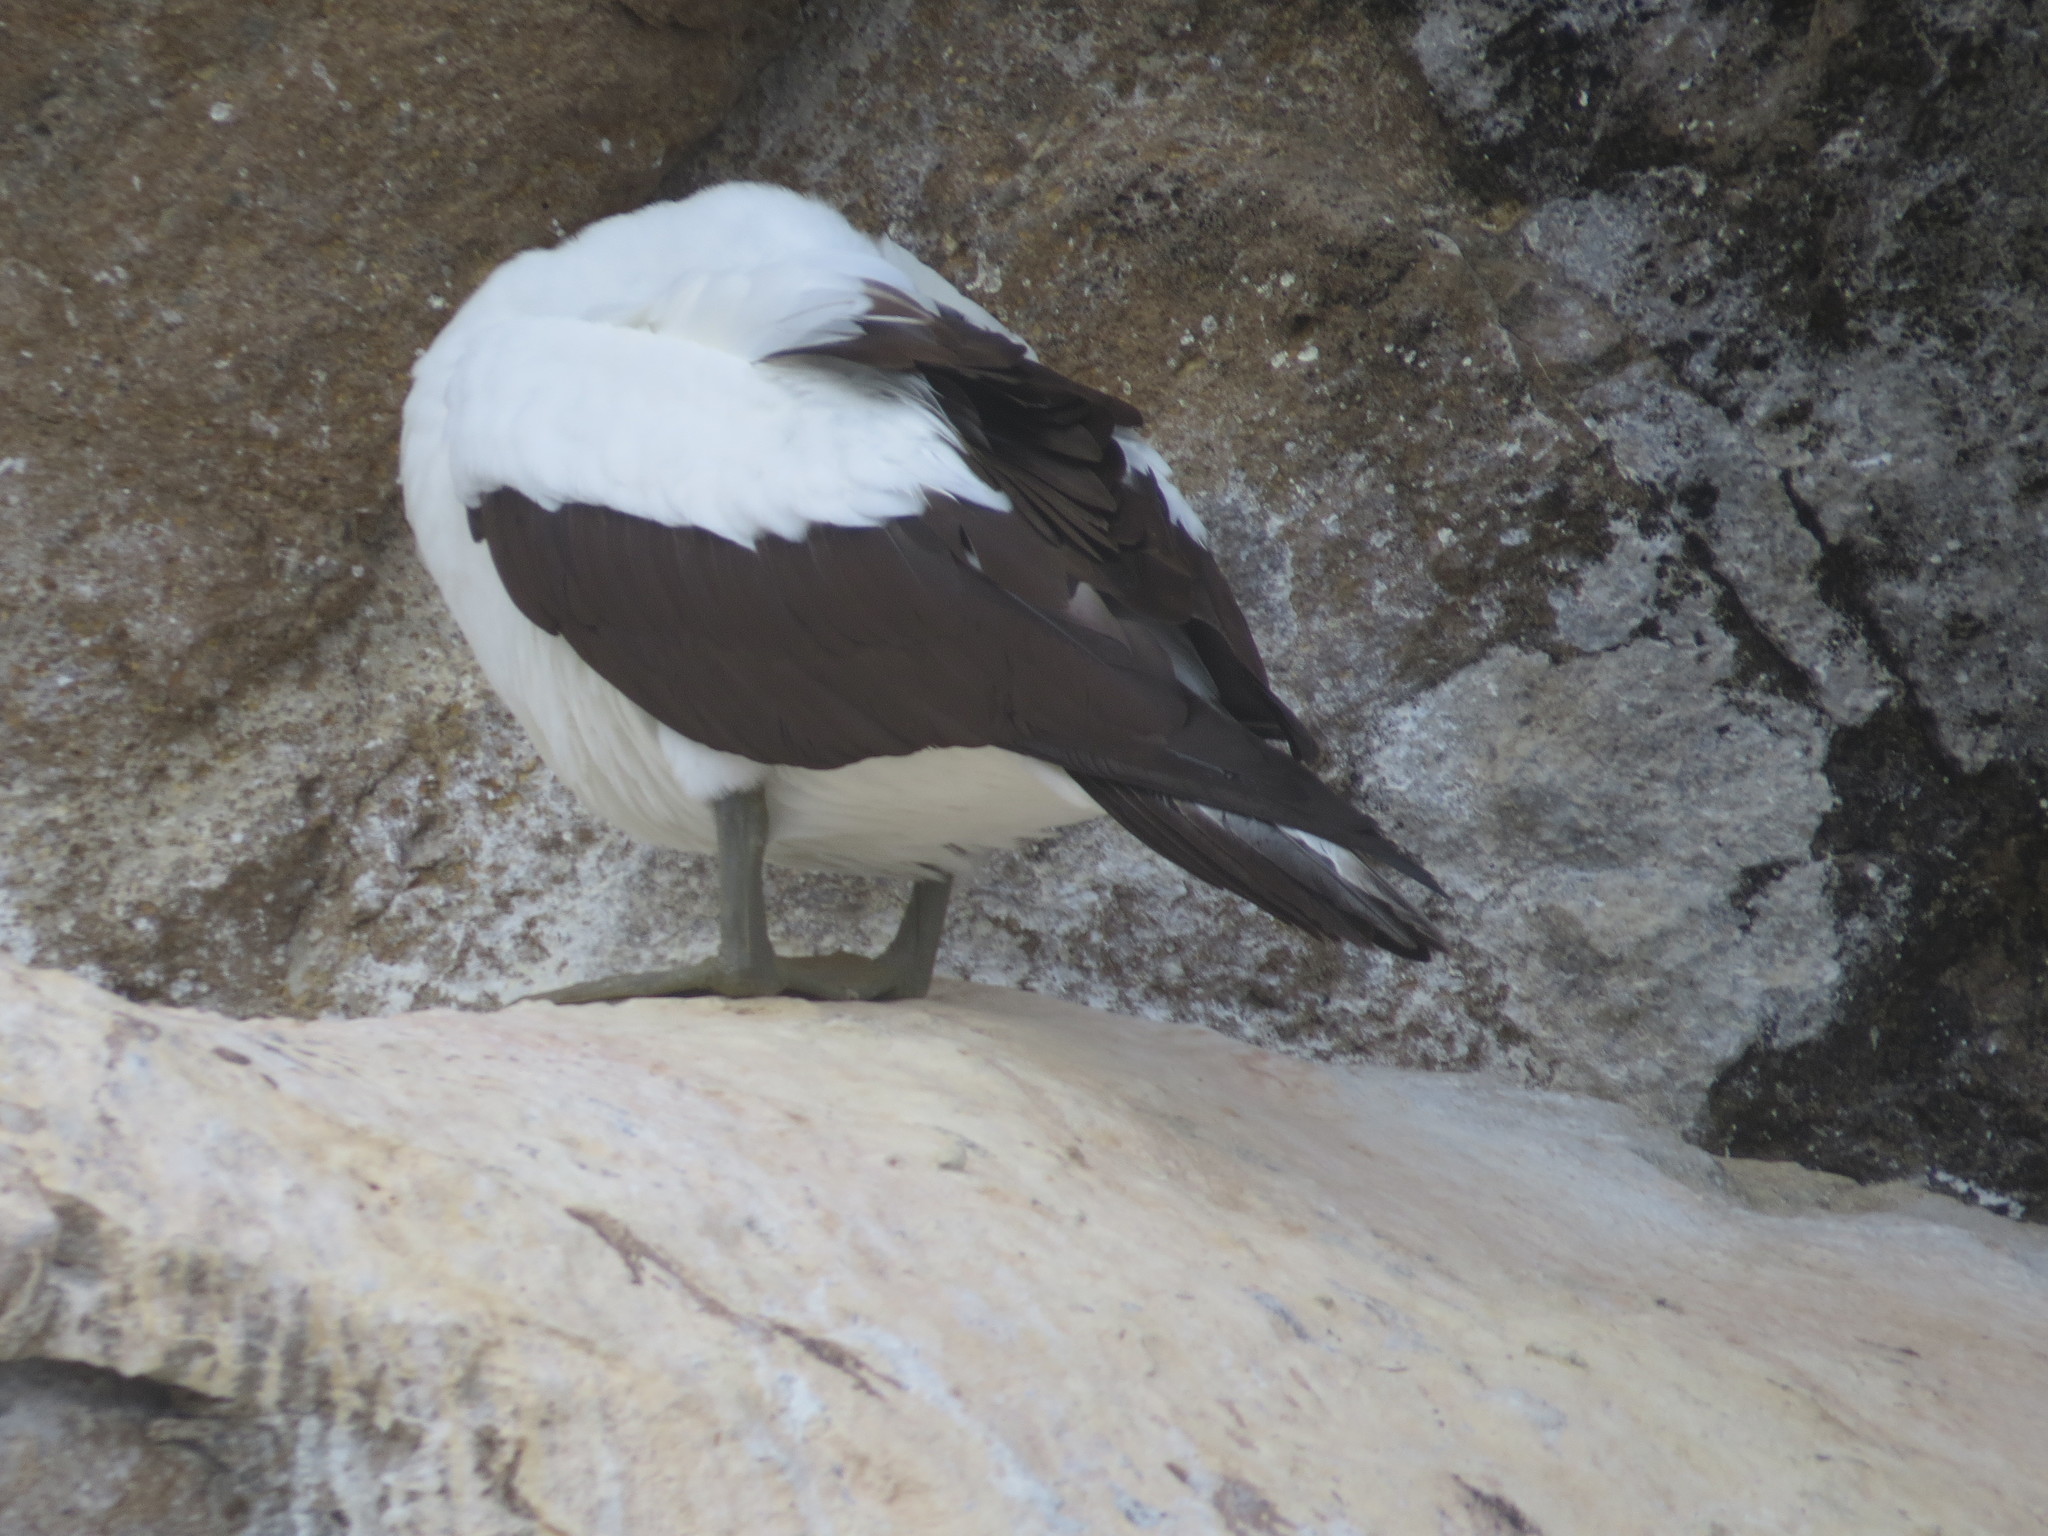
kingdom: Animalia
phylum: Chordata
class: Aves
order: Suliformes
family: Sulidae
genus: Sula
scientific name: Sula granti
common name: Nazca booby
